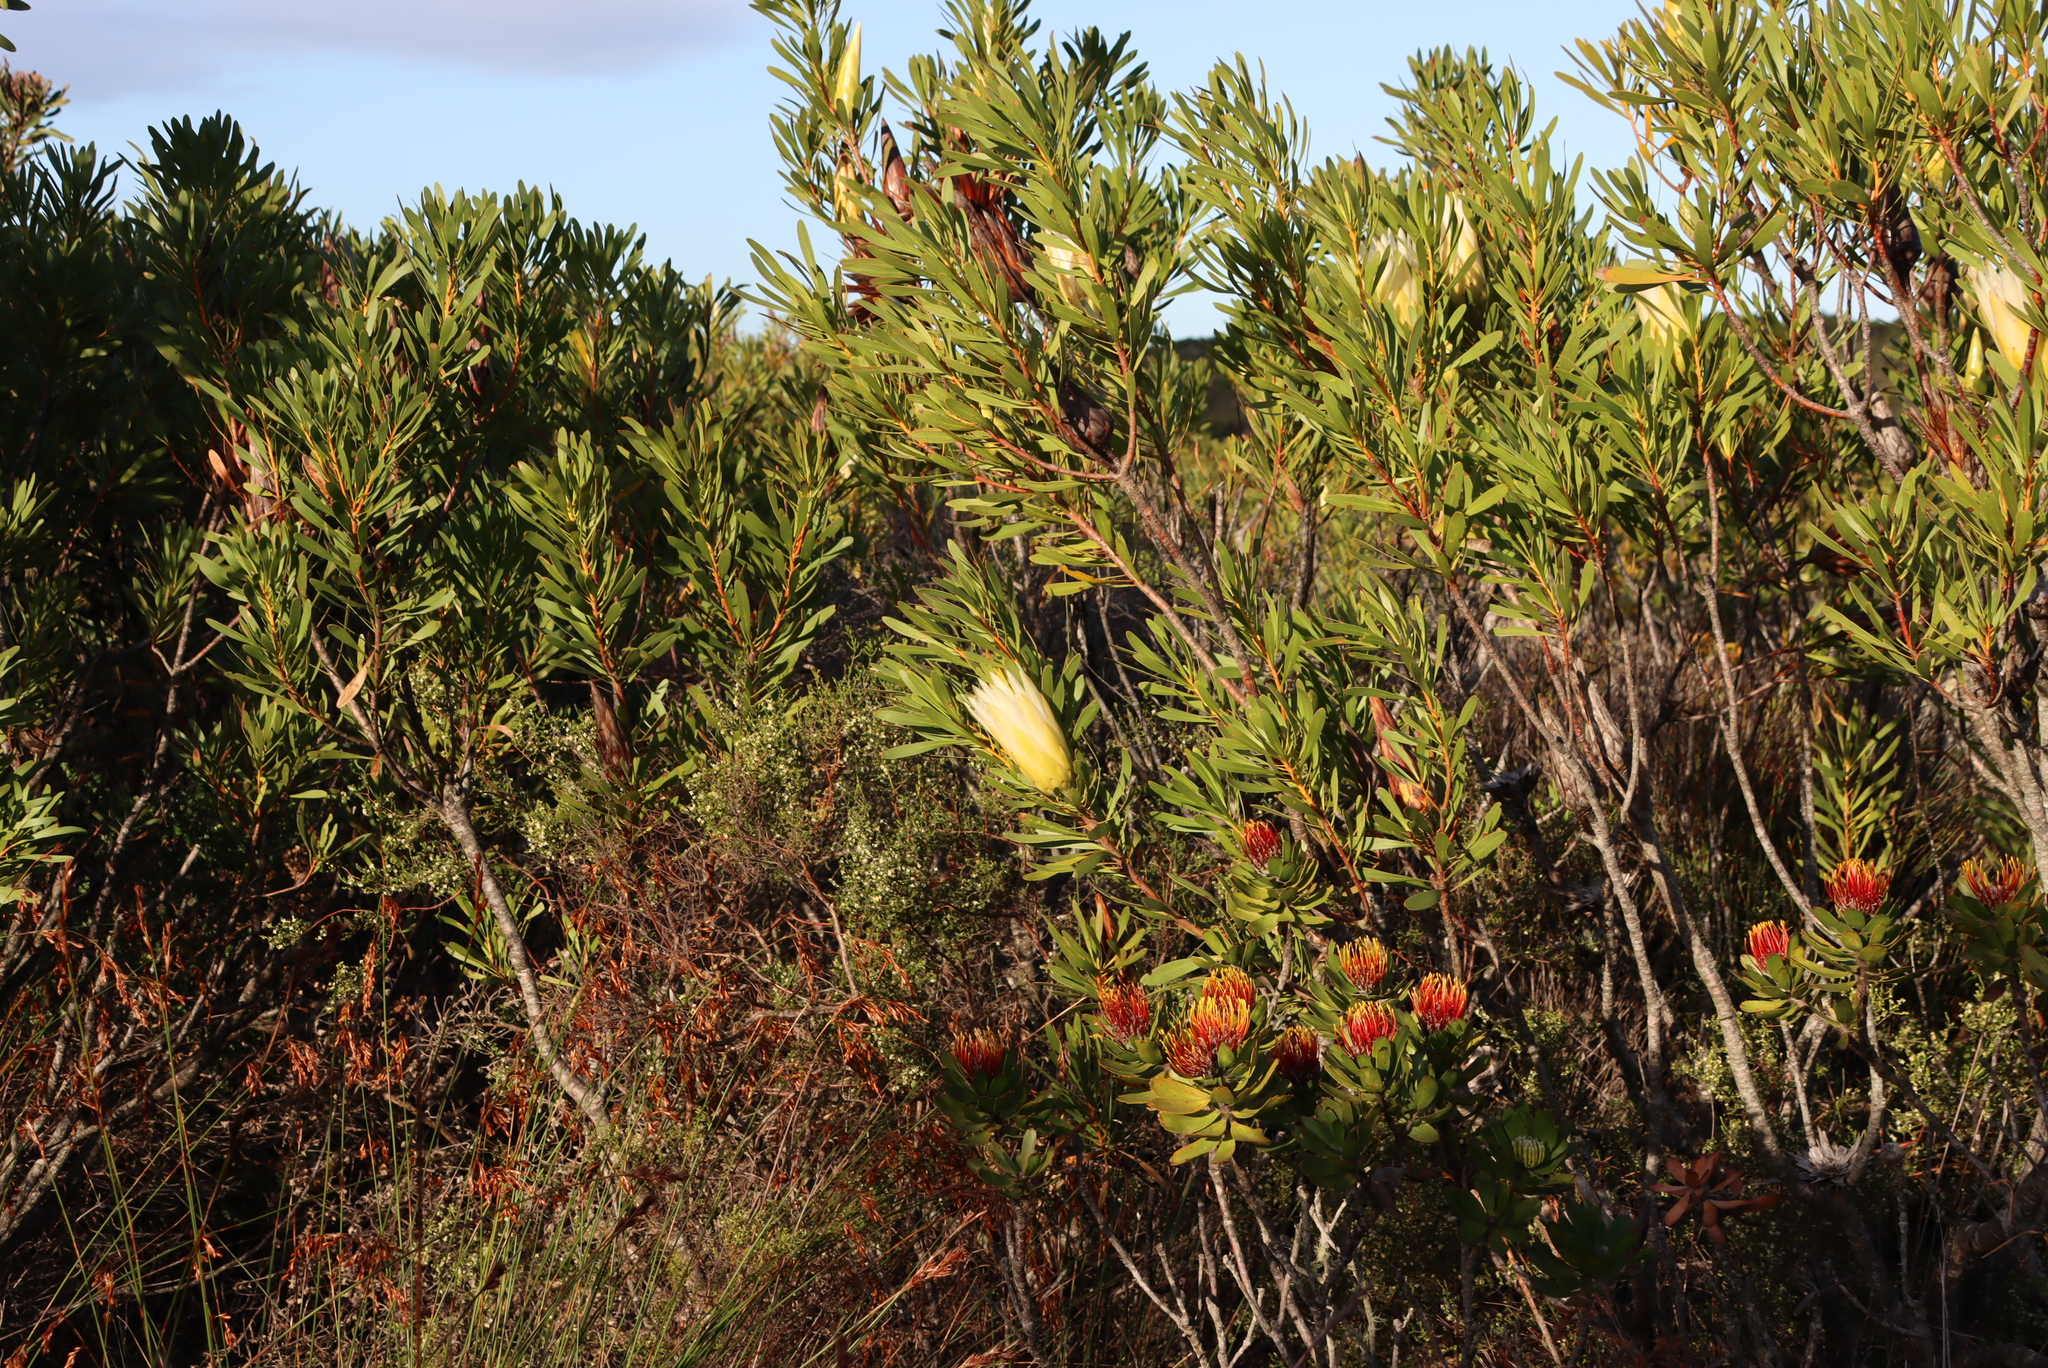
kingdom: Plantae
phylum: Tracheophyta
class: Magnoliopsida
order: Proteales
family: Proteaceae
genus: Protea
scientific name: Protea repens
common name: Sugarbush
